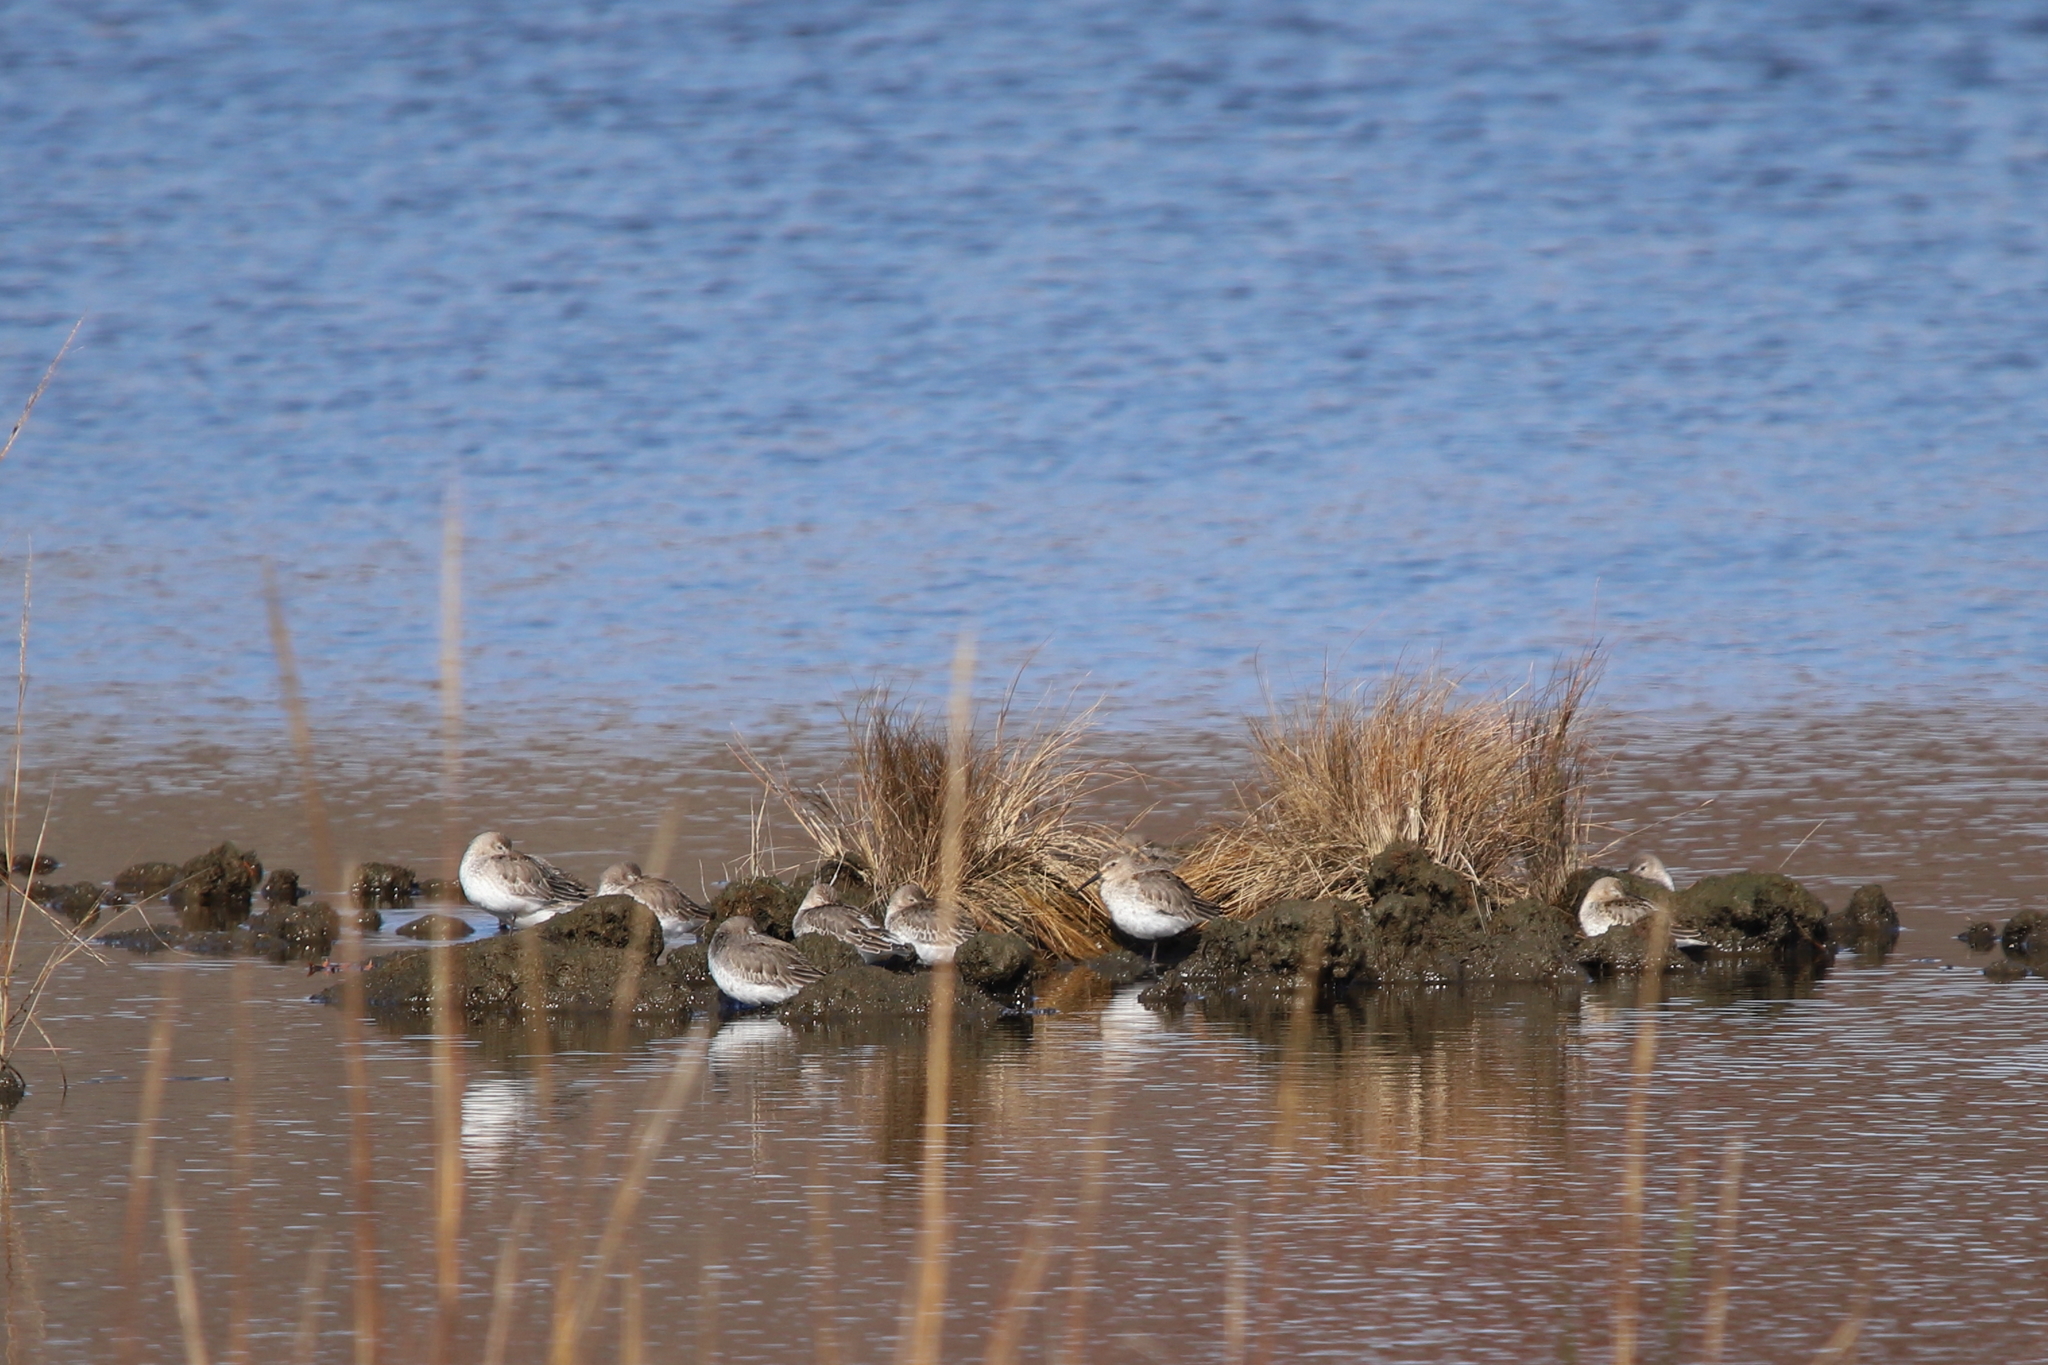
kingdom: Animalia
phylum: Chordata
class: Aves
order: Charadriiformes
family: Scolopacidae
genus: Calidris
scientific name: Calidris alpina
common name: Dunlin
